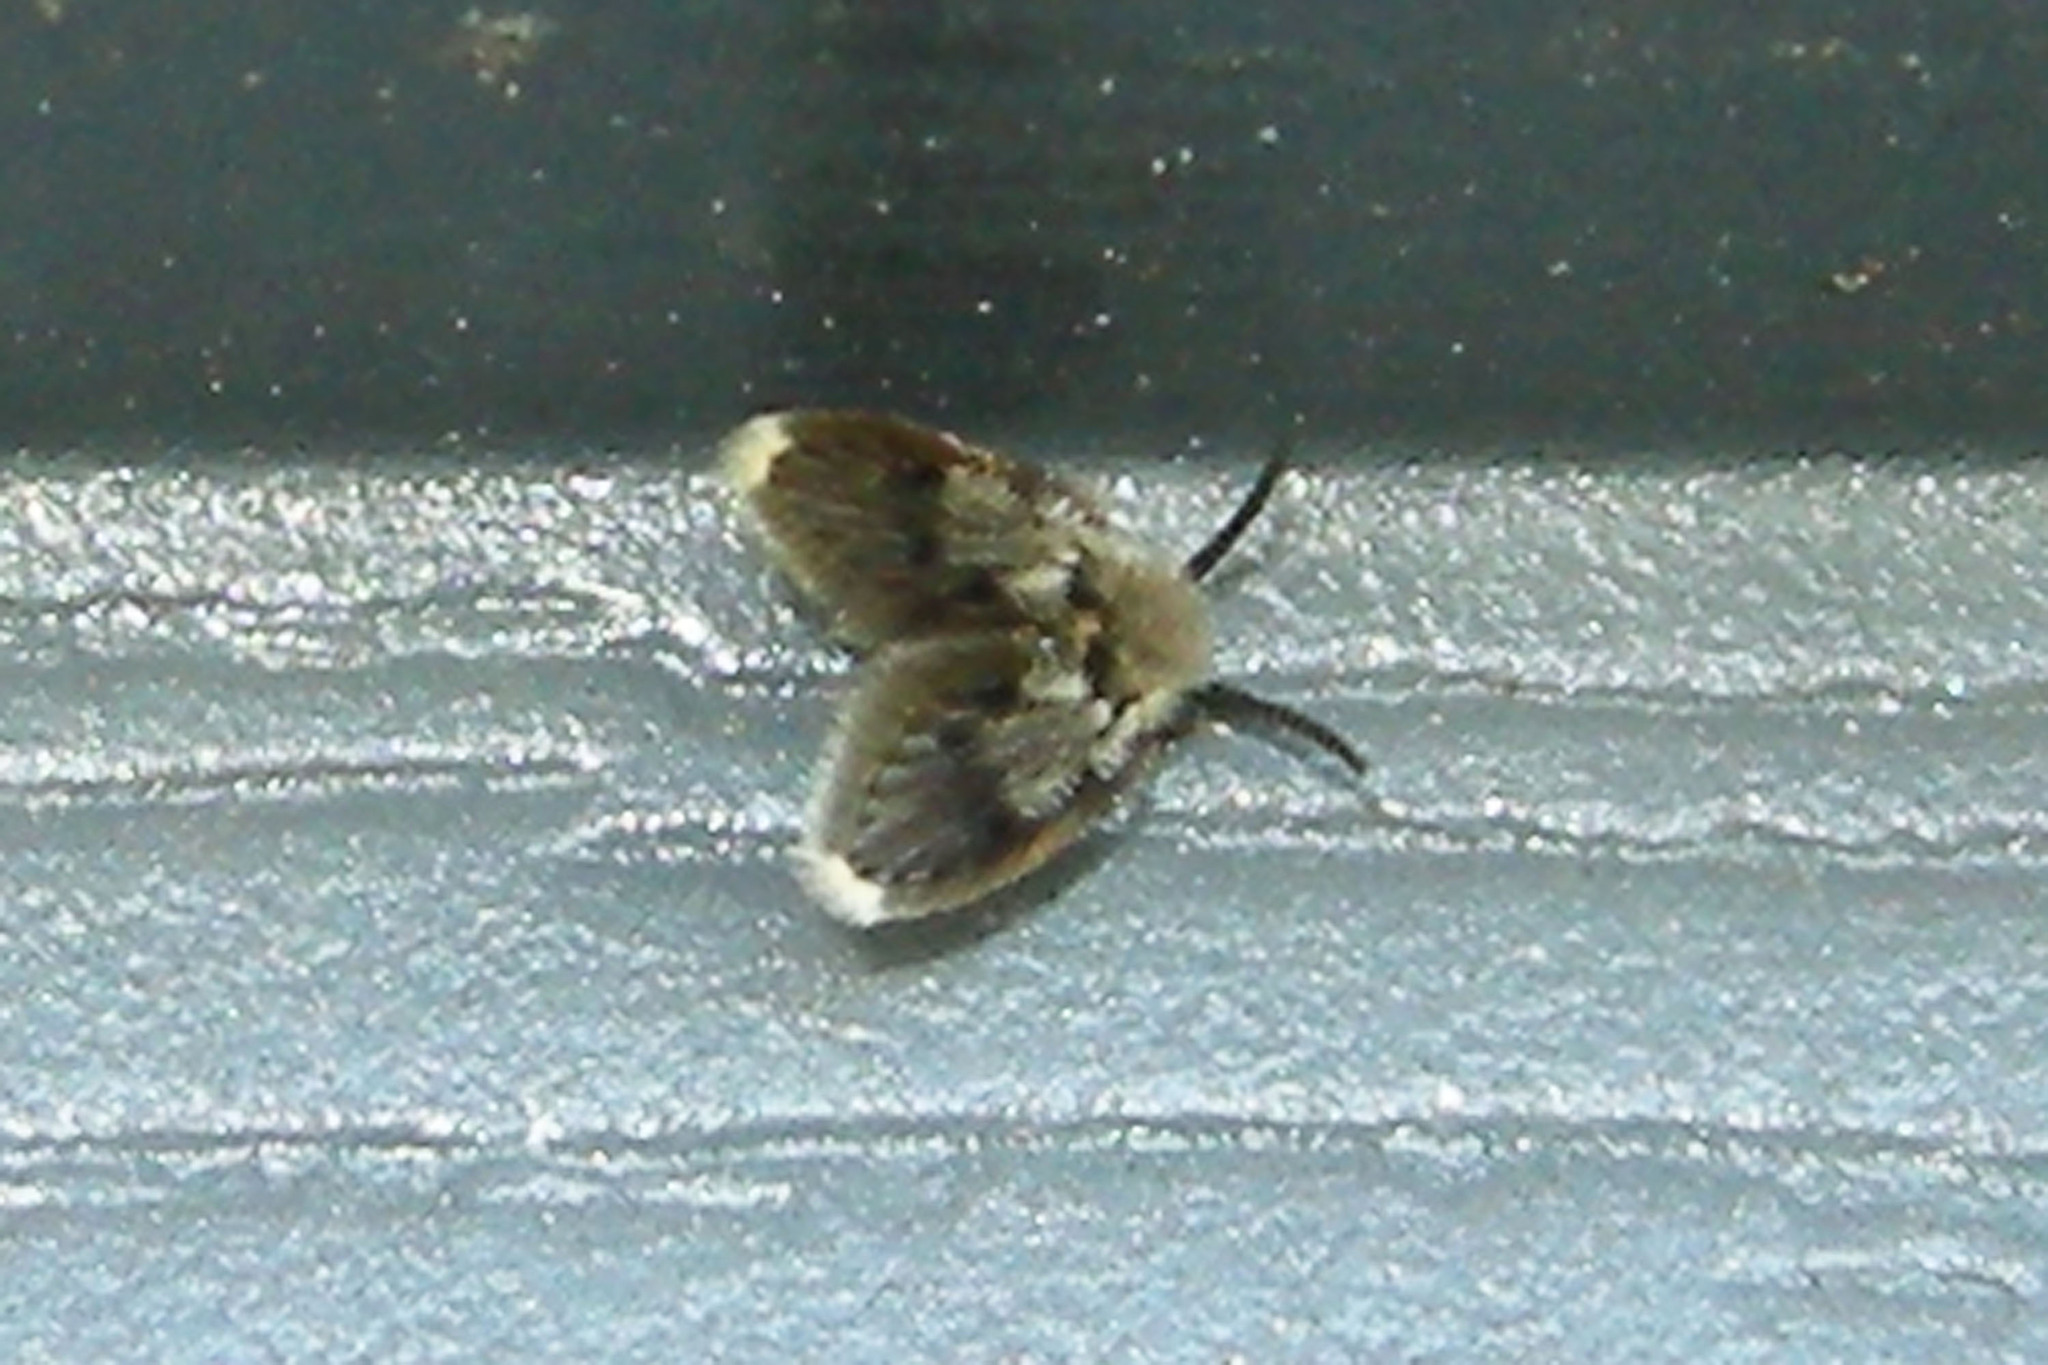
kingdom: Animalia
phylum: Arthropoda
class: Insecta
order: Diptera
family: Psychodidae
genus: Lepiseodina
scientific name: Lepiseodina
